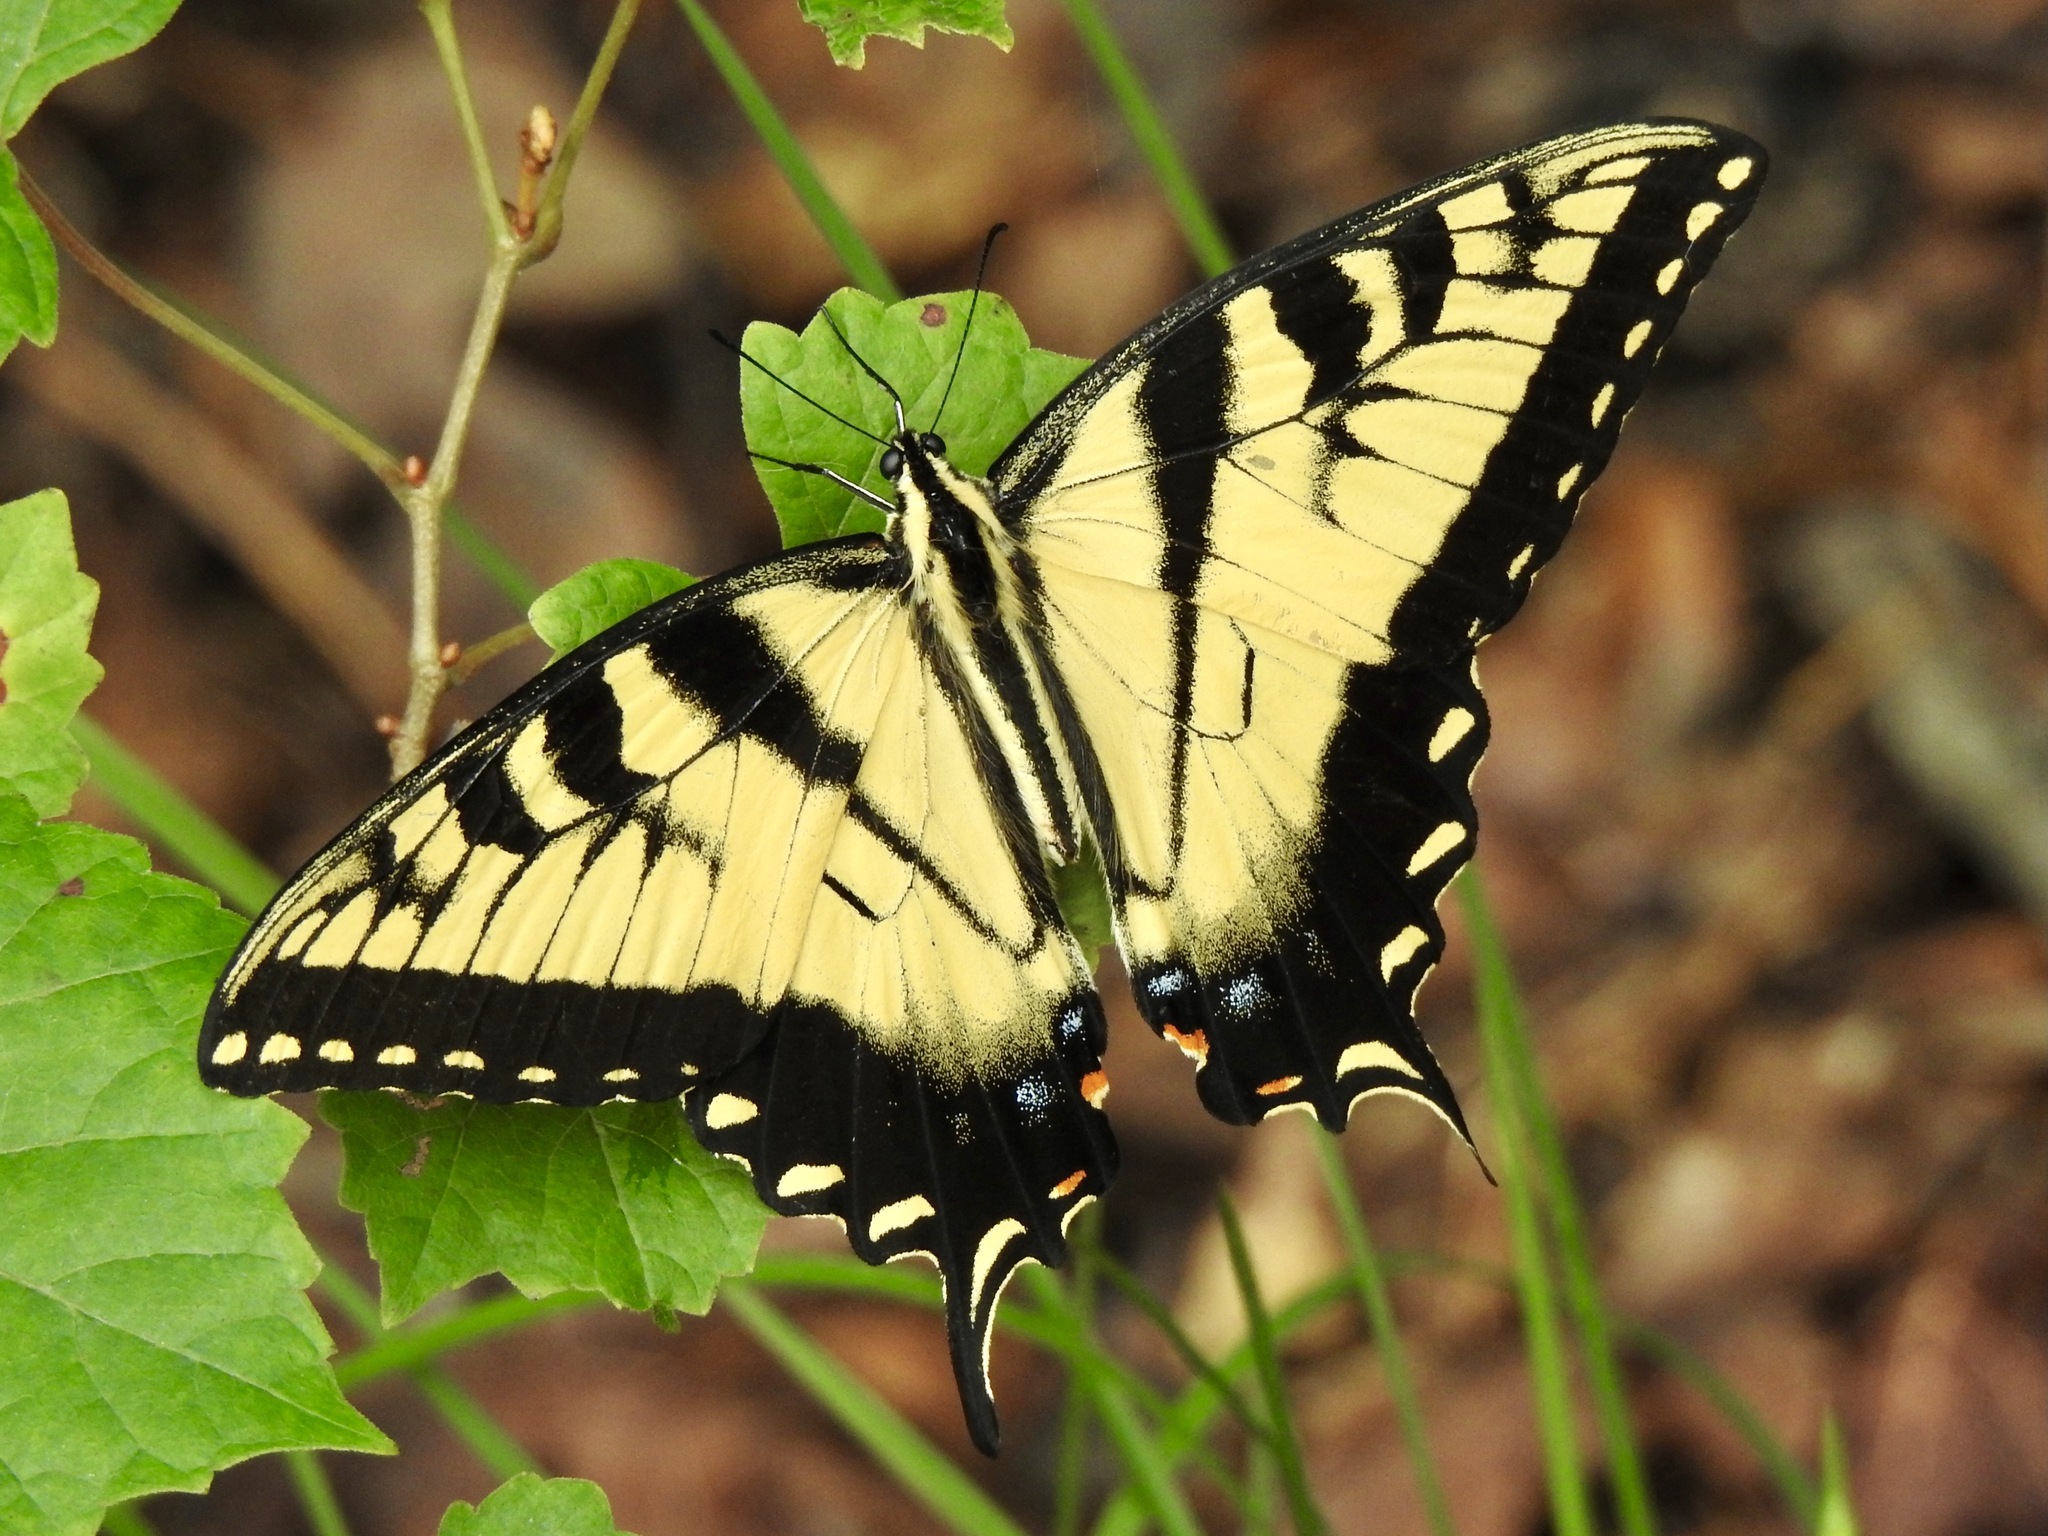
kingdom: Animalia
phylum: Arthropoda
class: Insecta
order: Lepidoptera
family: Papilionidae
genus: Papilio
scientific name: Papilio glaucus
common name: Tiger swallowtail
